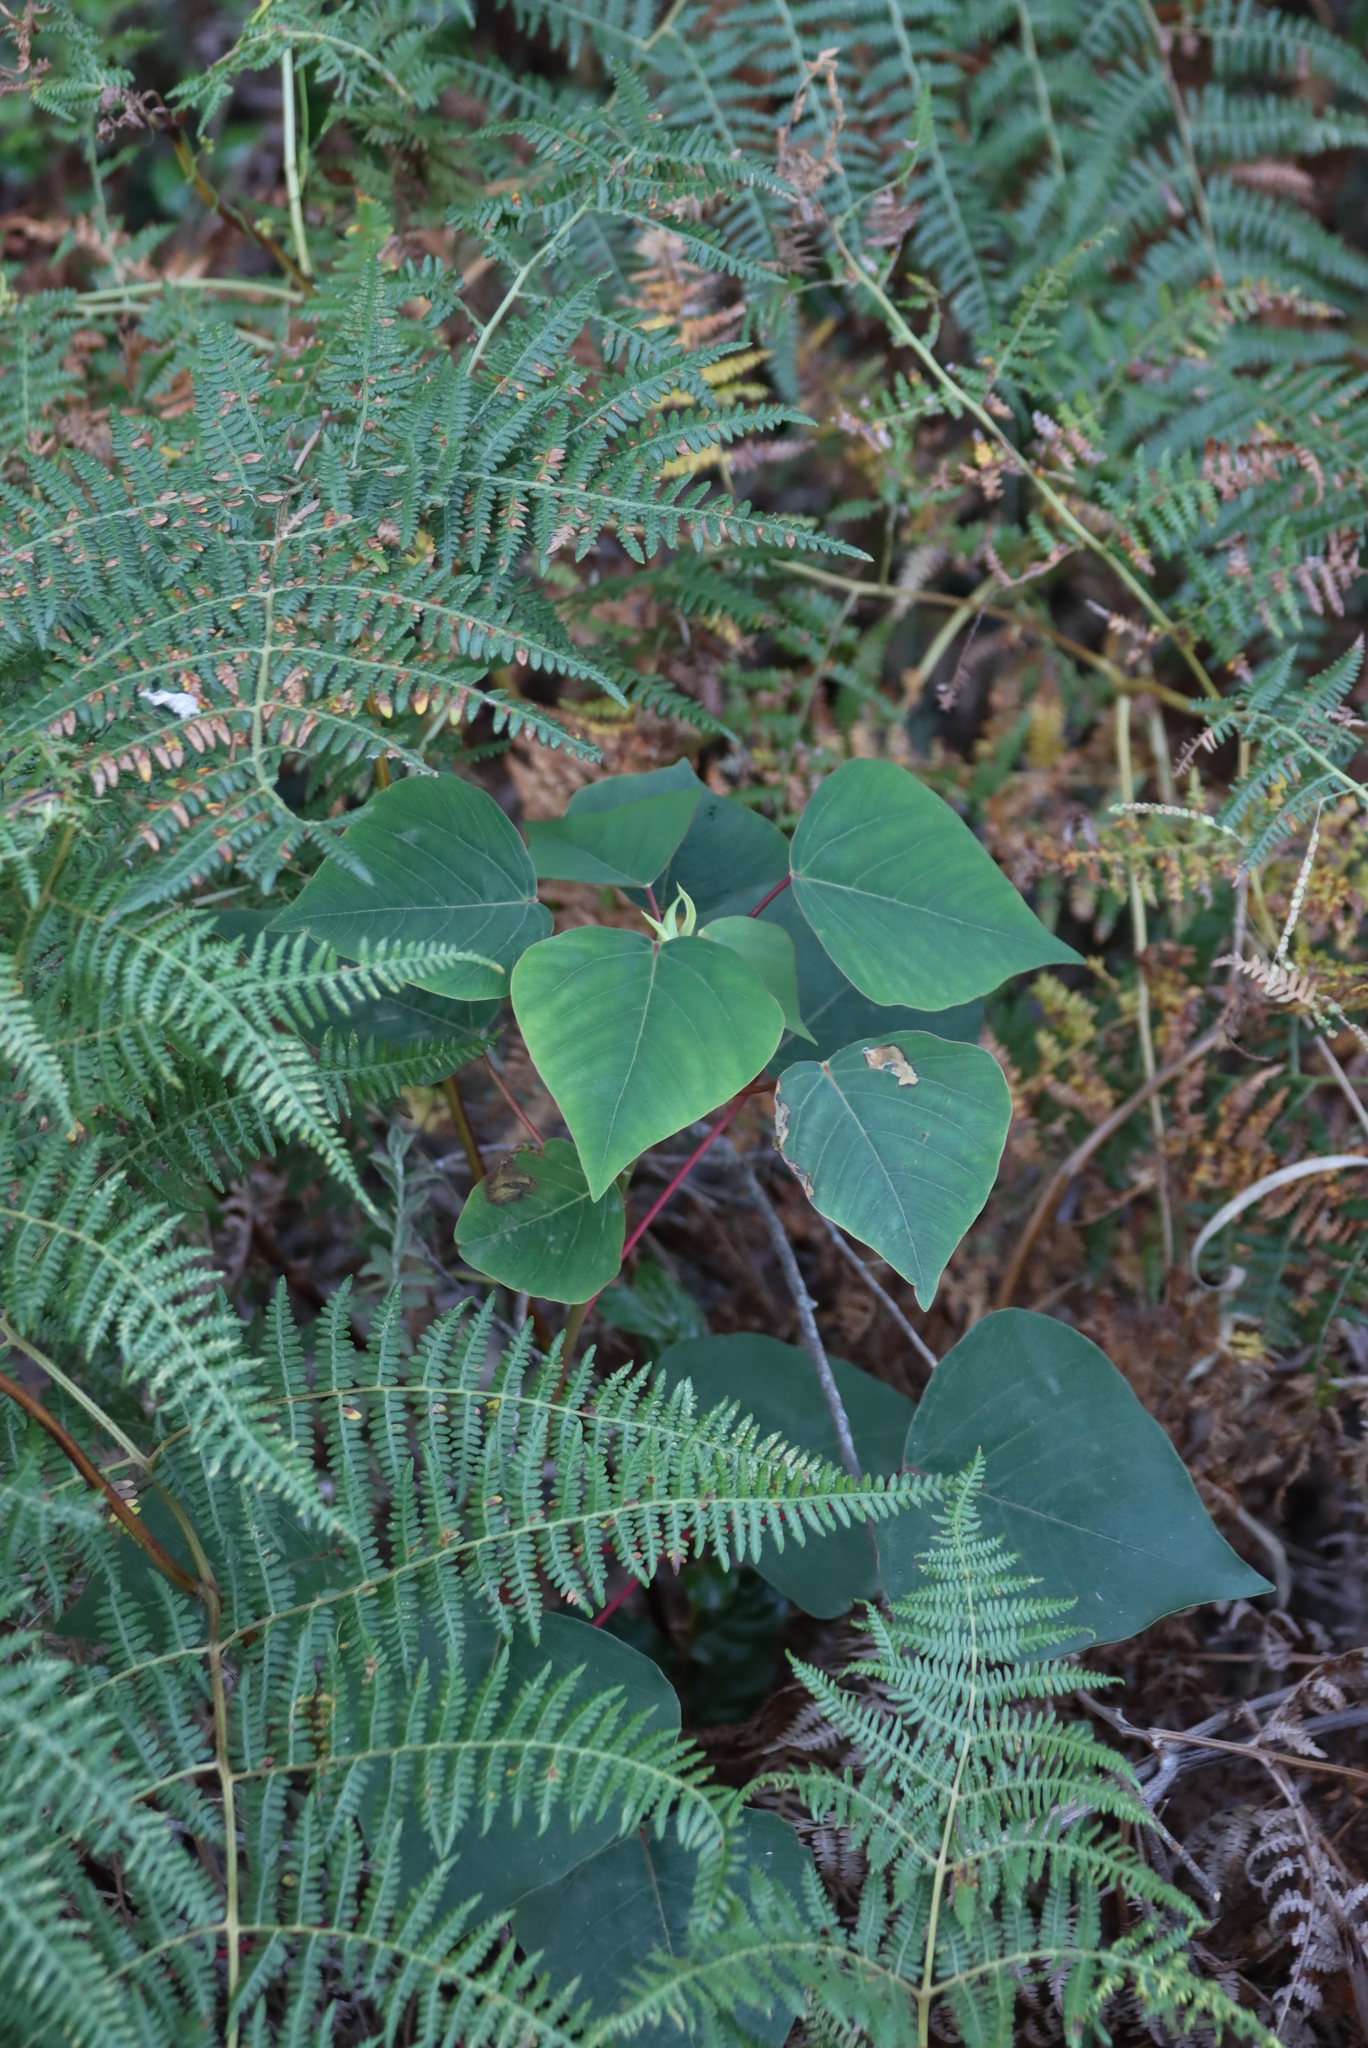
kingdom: Plantae
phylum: Tracheophyta
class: Magnoliopsida
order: Malpighiales
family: Euphorbiaceae
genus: Homalanthus
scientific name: Homalanthus populifolius
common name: Queensland poplar
